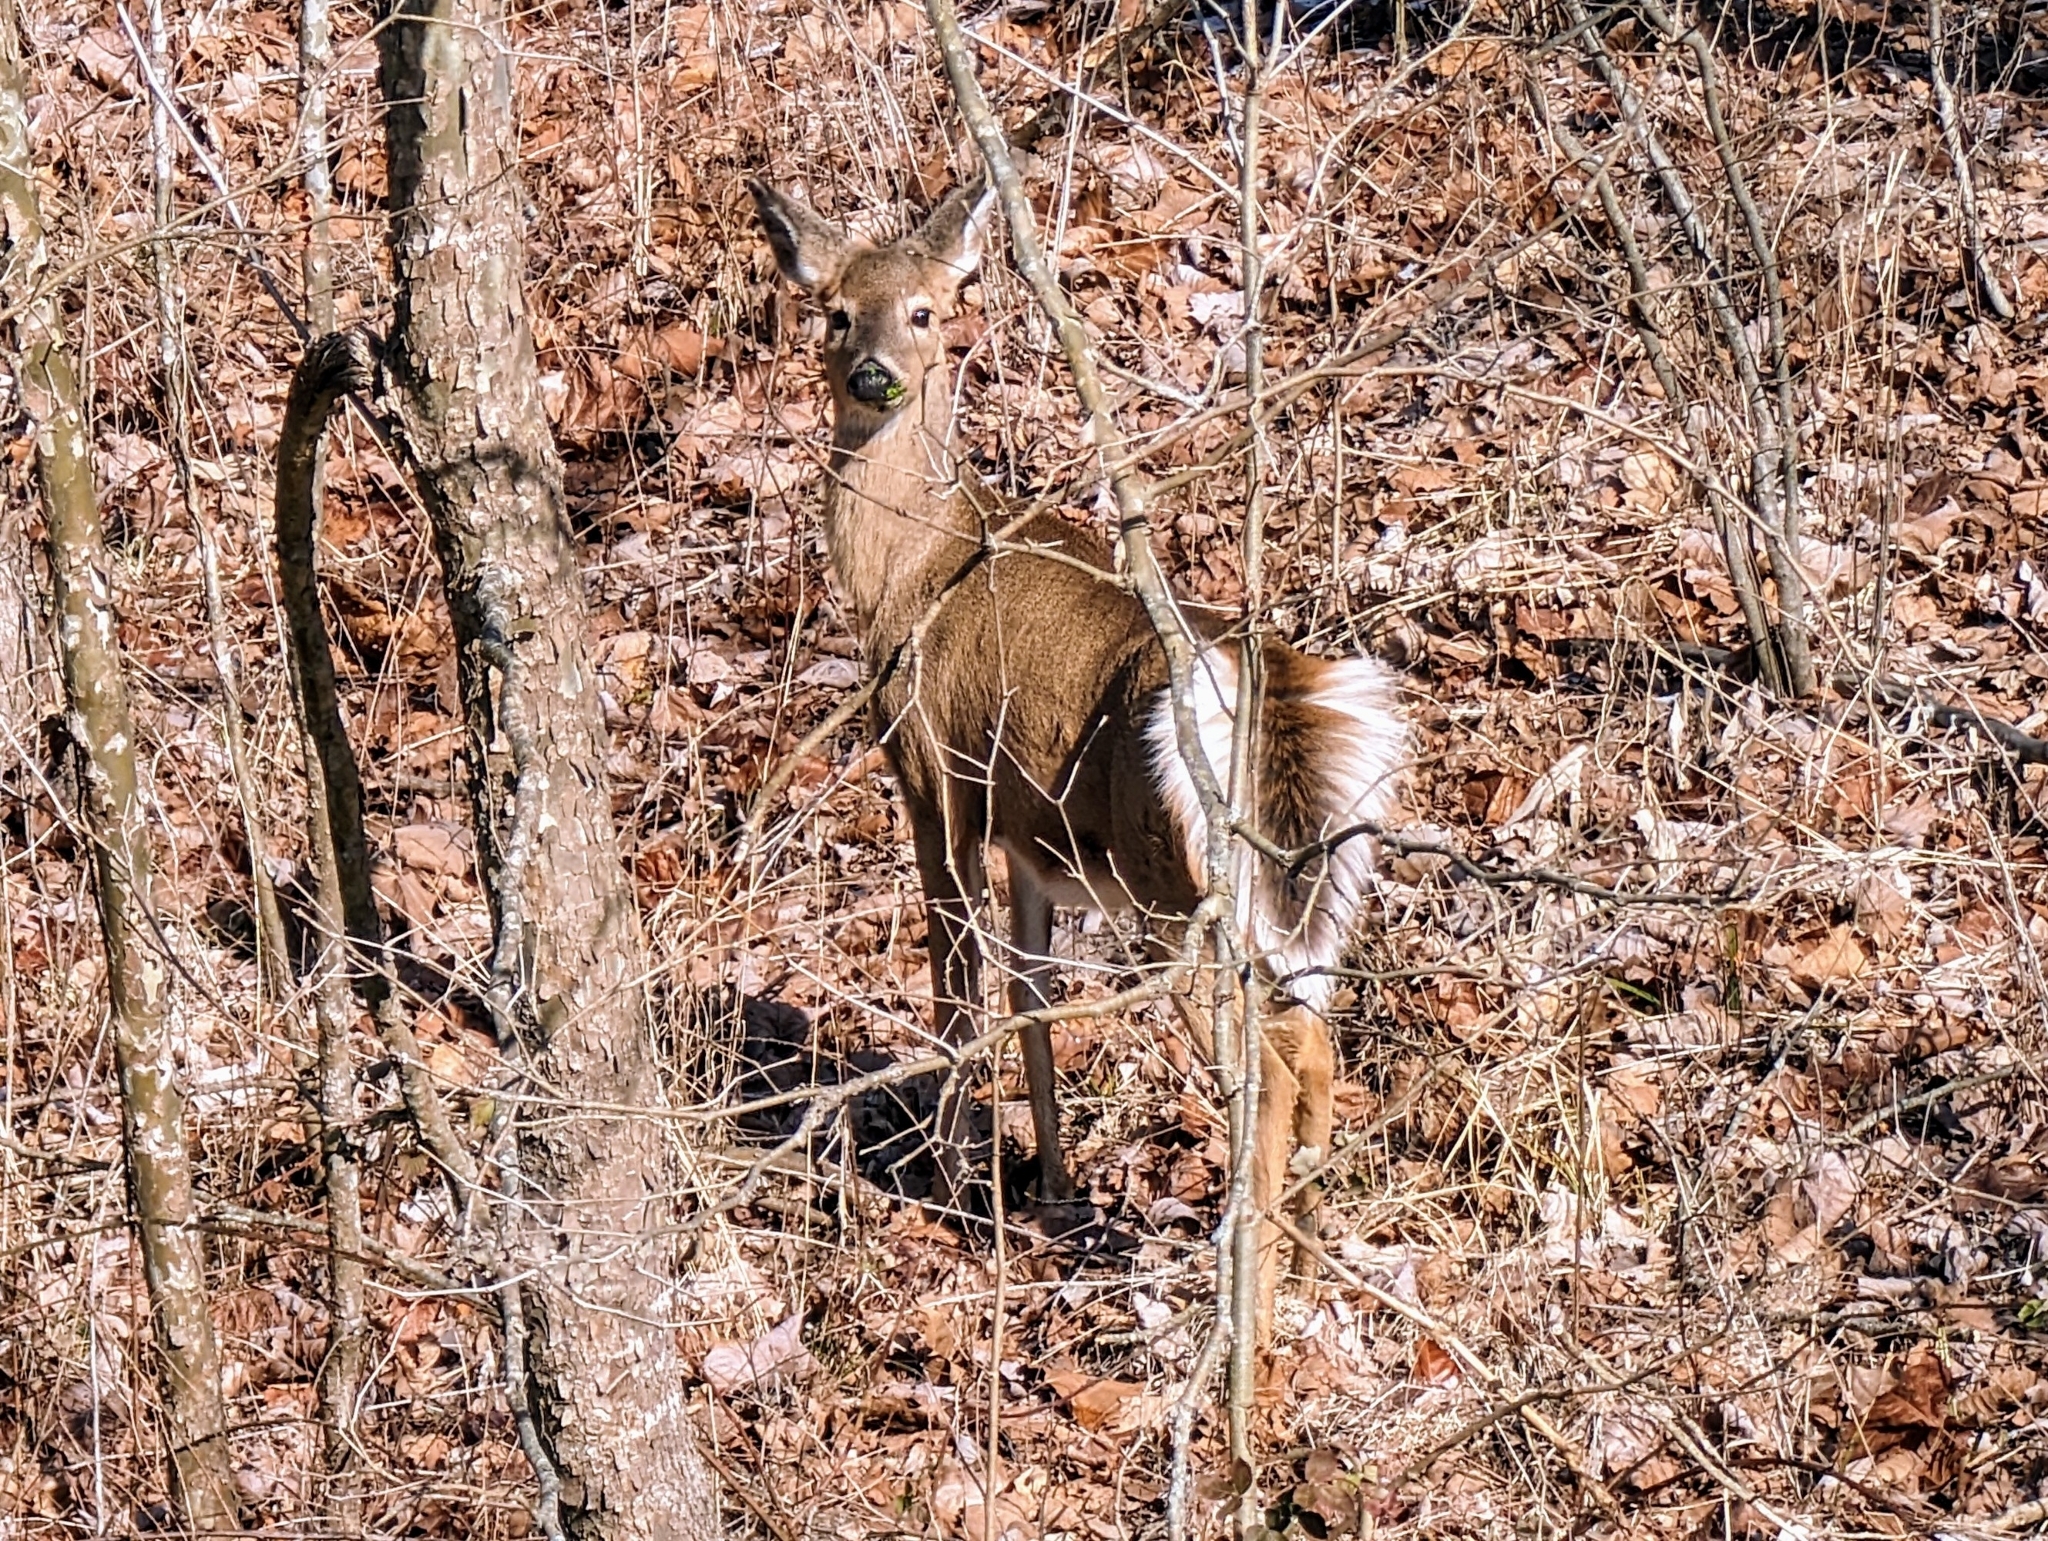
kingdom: Animalia
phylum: Chordata
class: Mammalia
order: Artiodactyla
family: Cervidae
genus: Odocoileus
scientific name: Odocoileus virginianus
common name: White-tailed deer
